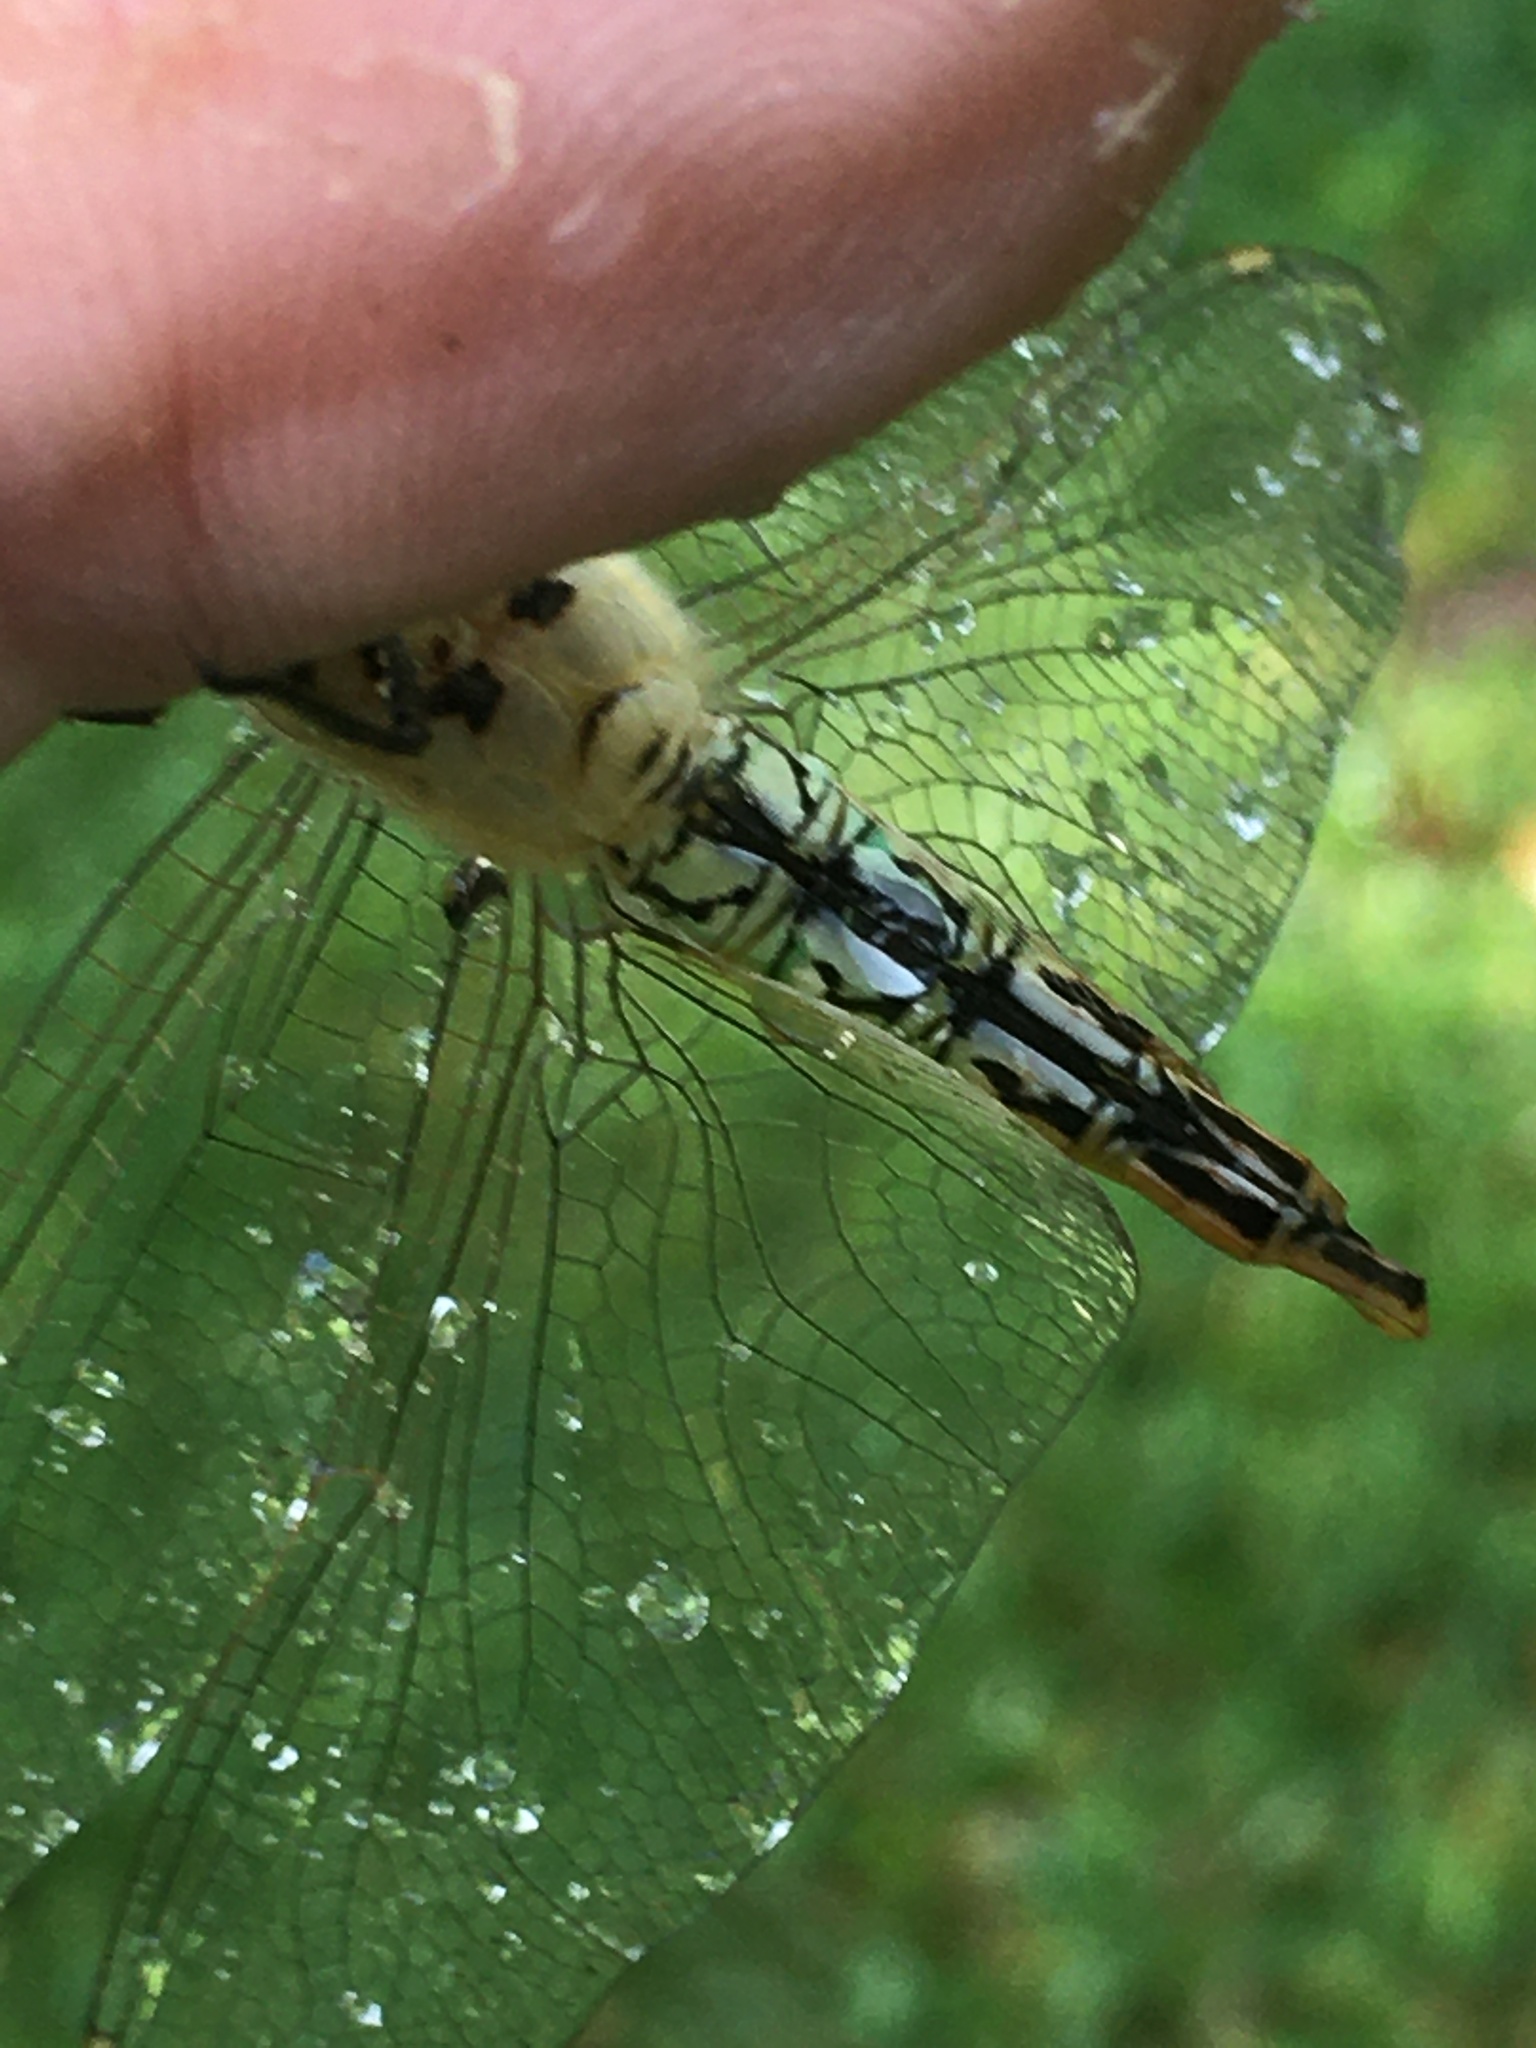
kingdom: Animalia
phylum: Arthropoda
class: Insecta
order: Odonata
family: Libellulidae
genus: Pantala
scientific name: Pantala flavescens
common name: Wandering glider
